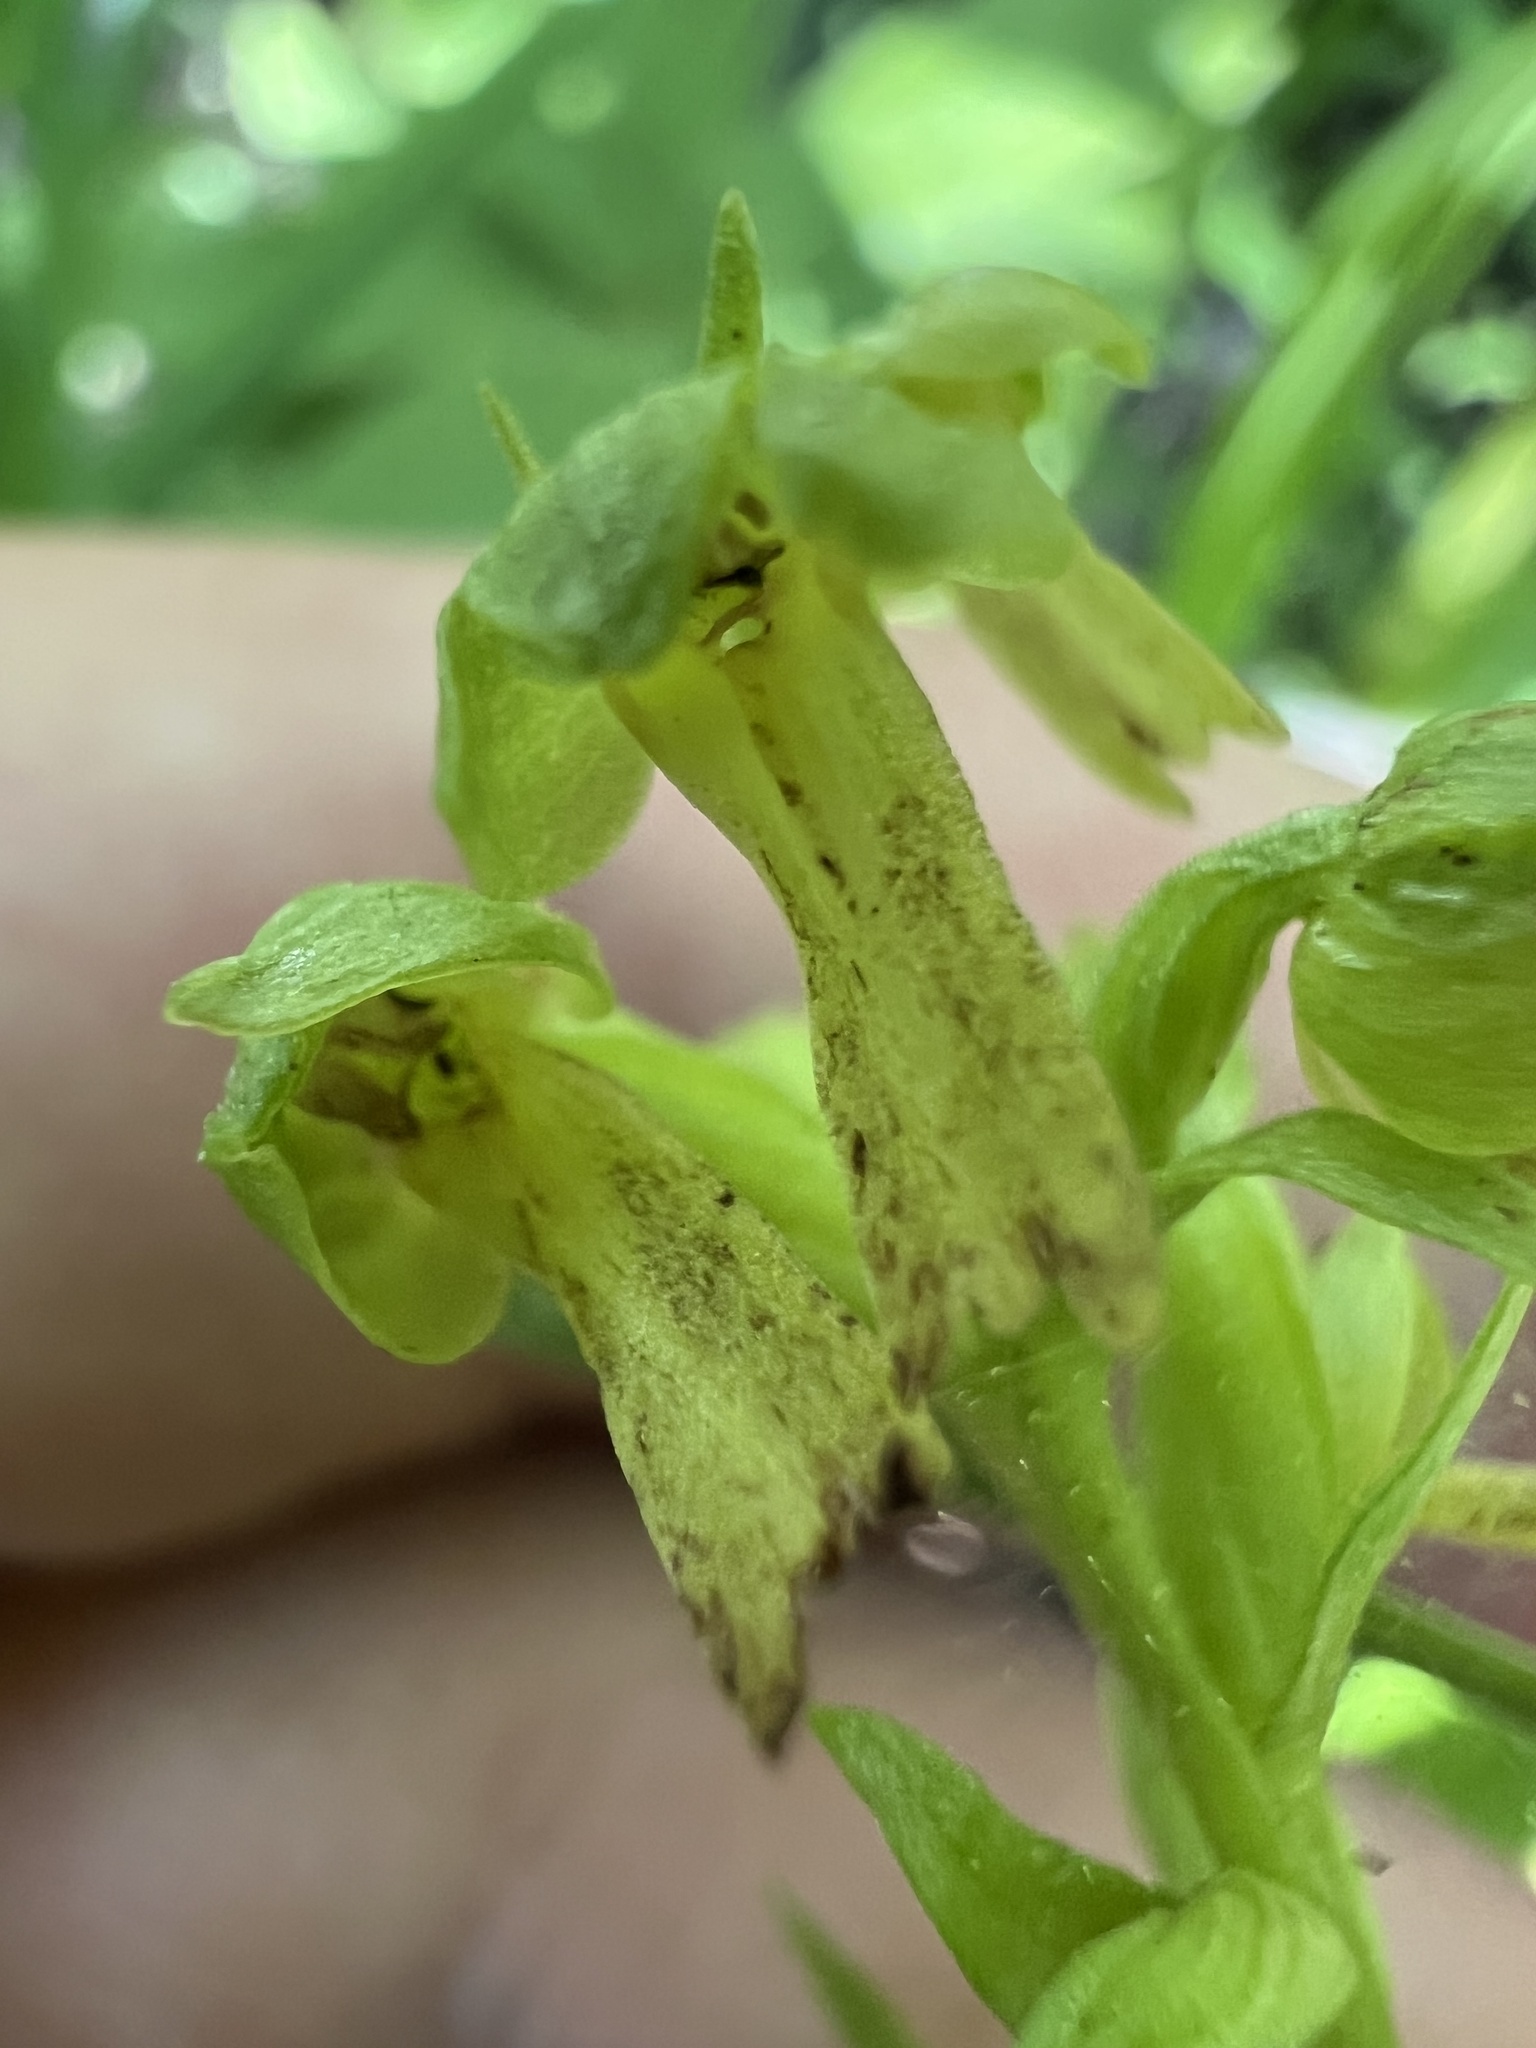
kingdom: Plantae
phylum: Tracheophyta
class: Liliopsida
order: Asparagales
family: Orchidaceae
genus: Dactylorhiza
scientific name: Dactylorhiza viridis
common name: Longbract frog orchid
